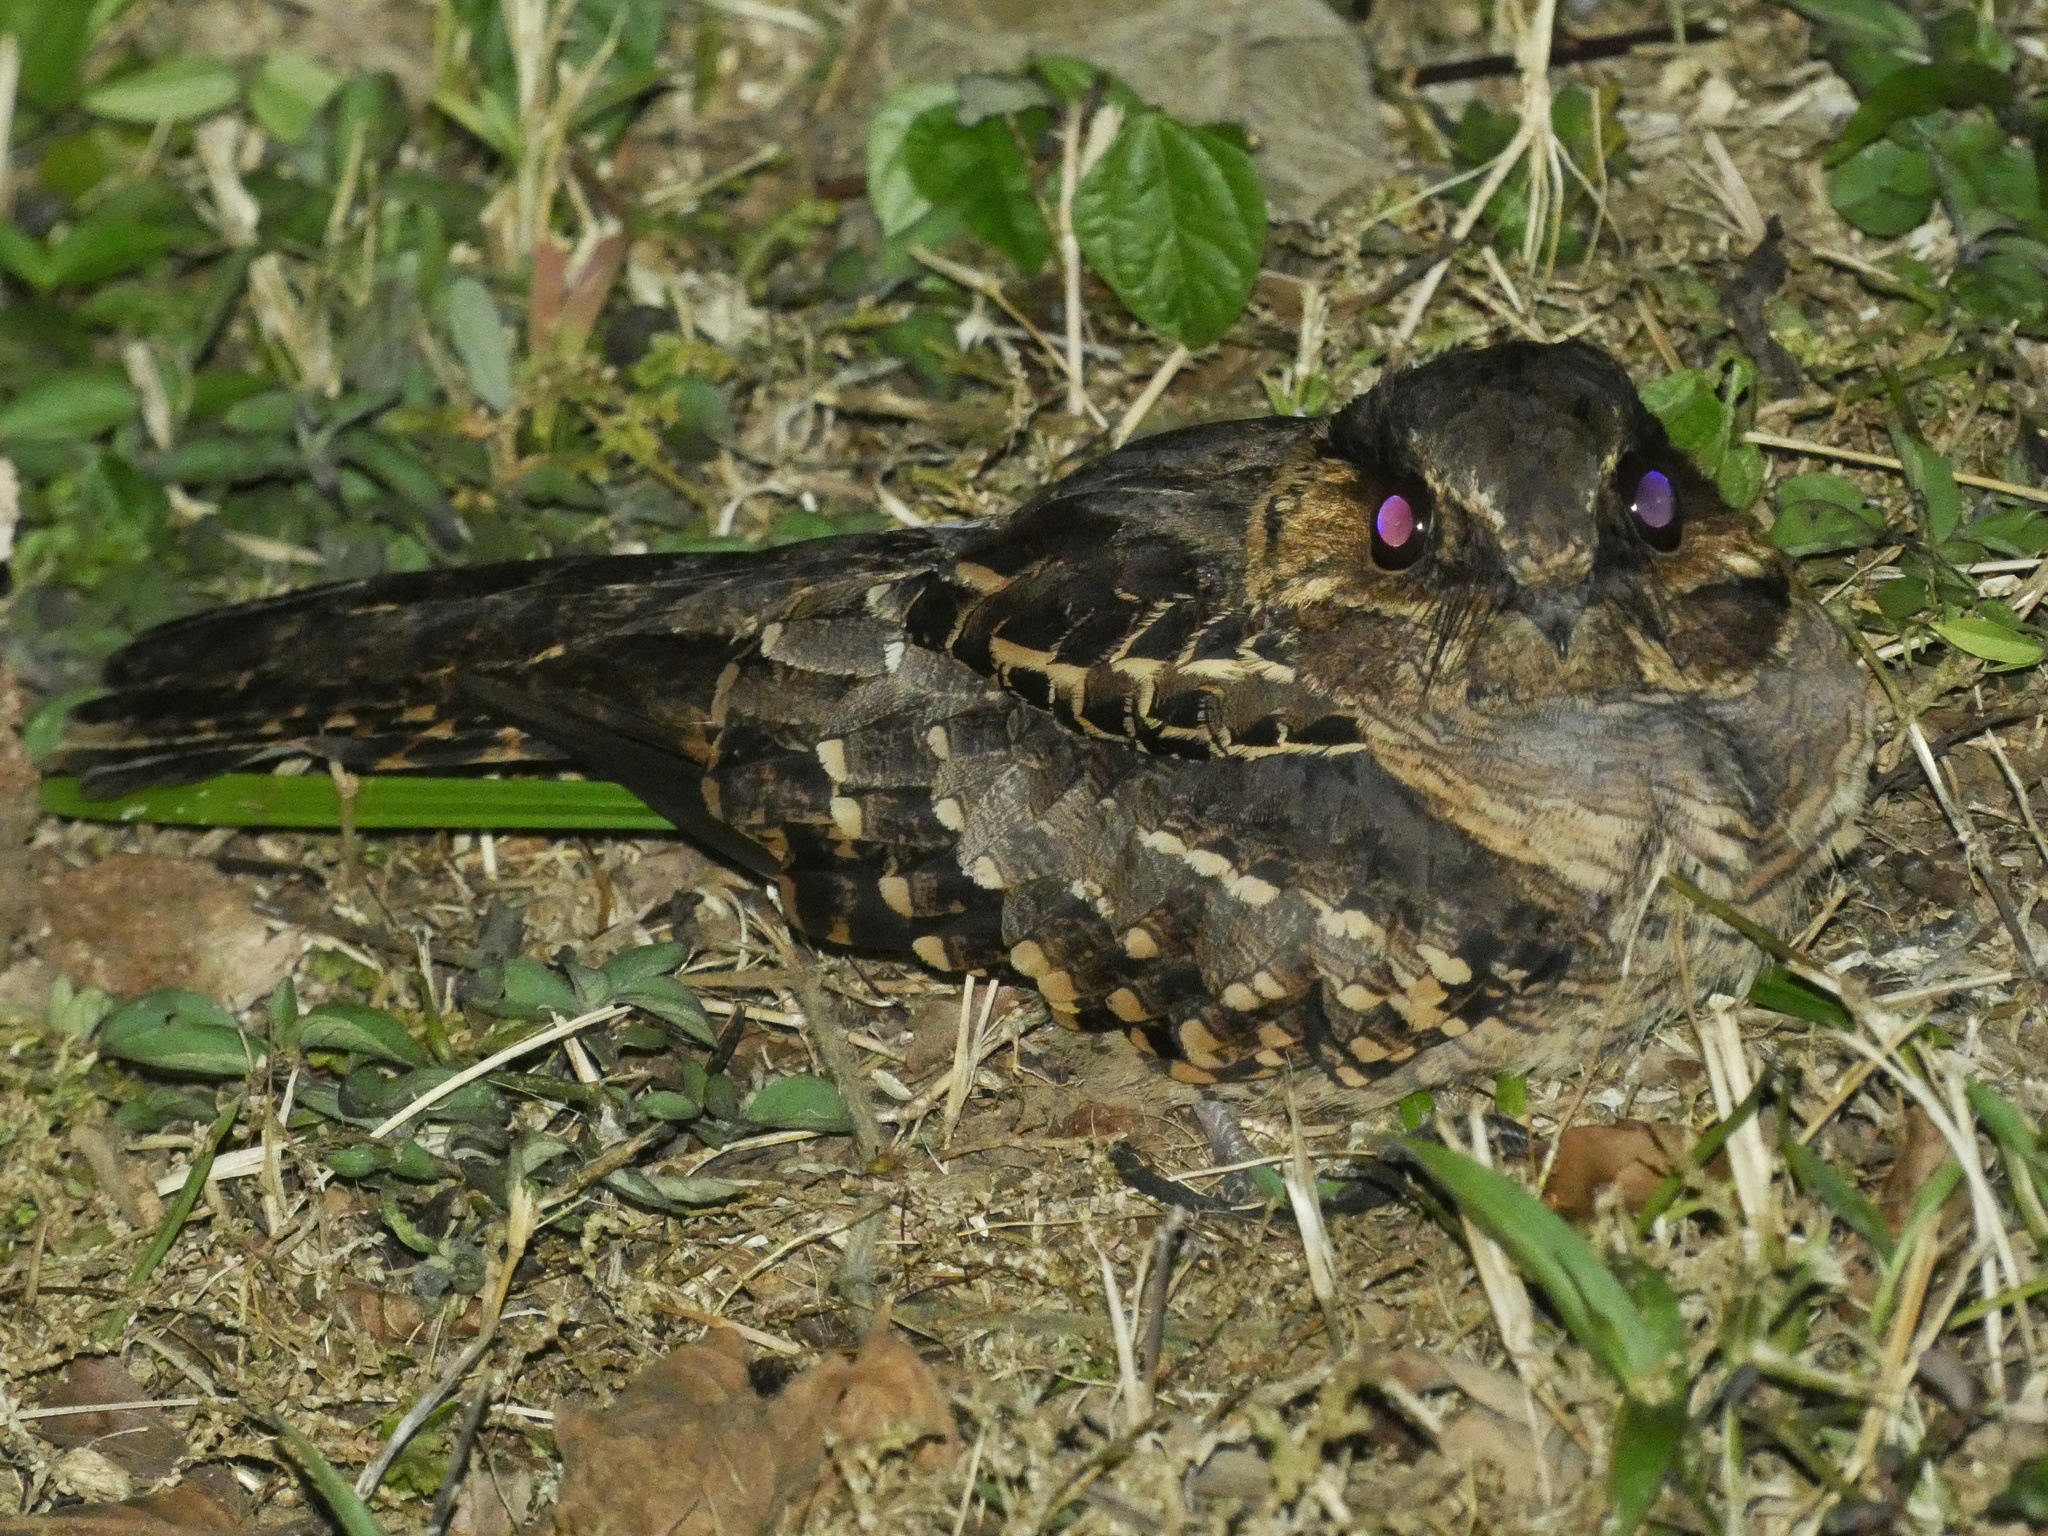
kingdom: Animalia
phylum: Chordata
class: Aves
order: Caprimulgiformes
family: Caprimulgidae
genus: Nyctidromus
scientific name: Nyctidromus albicollis
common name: Pauraque
